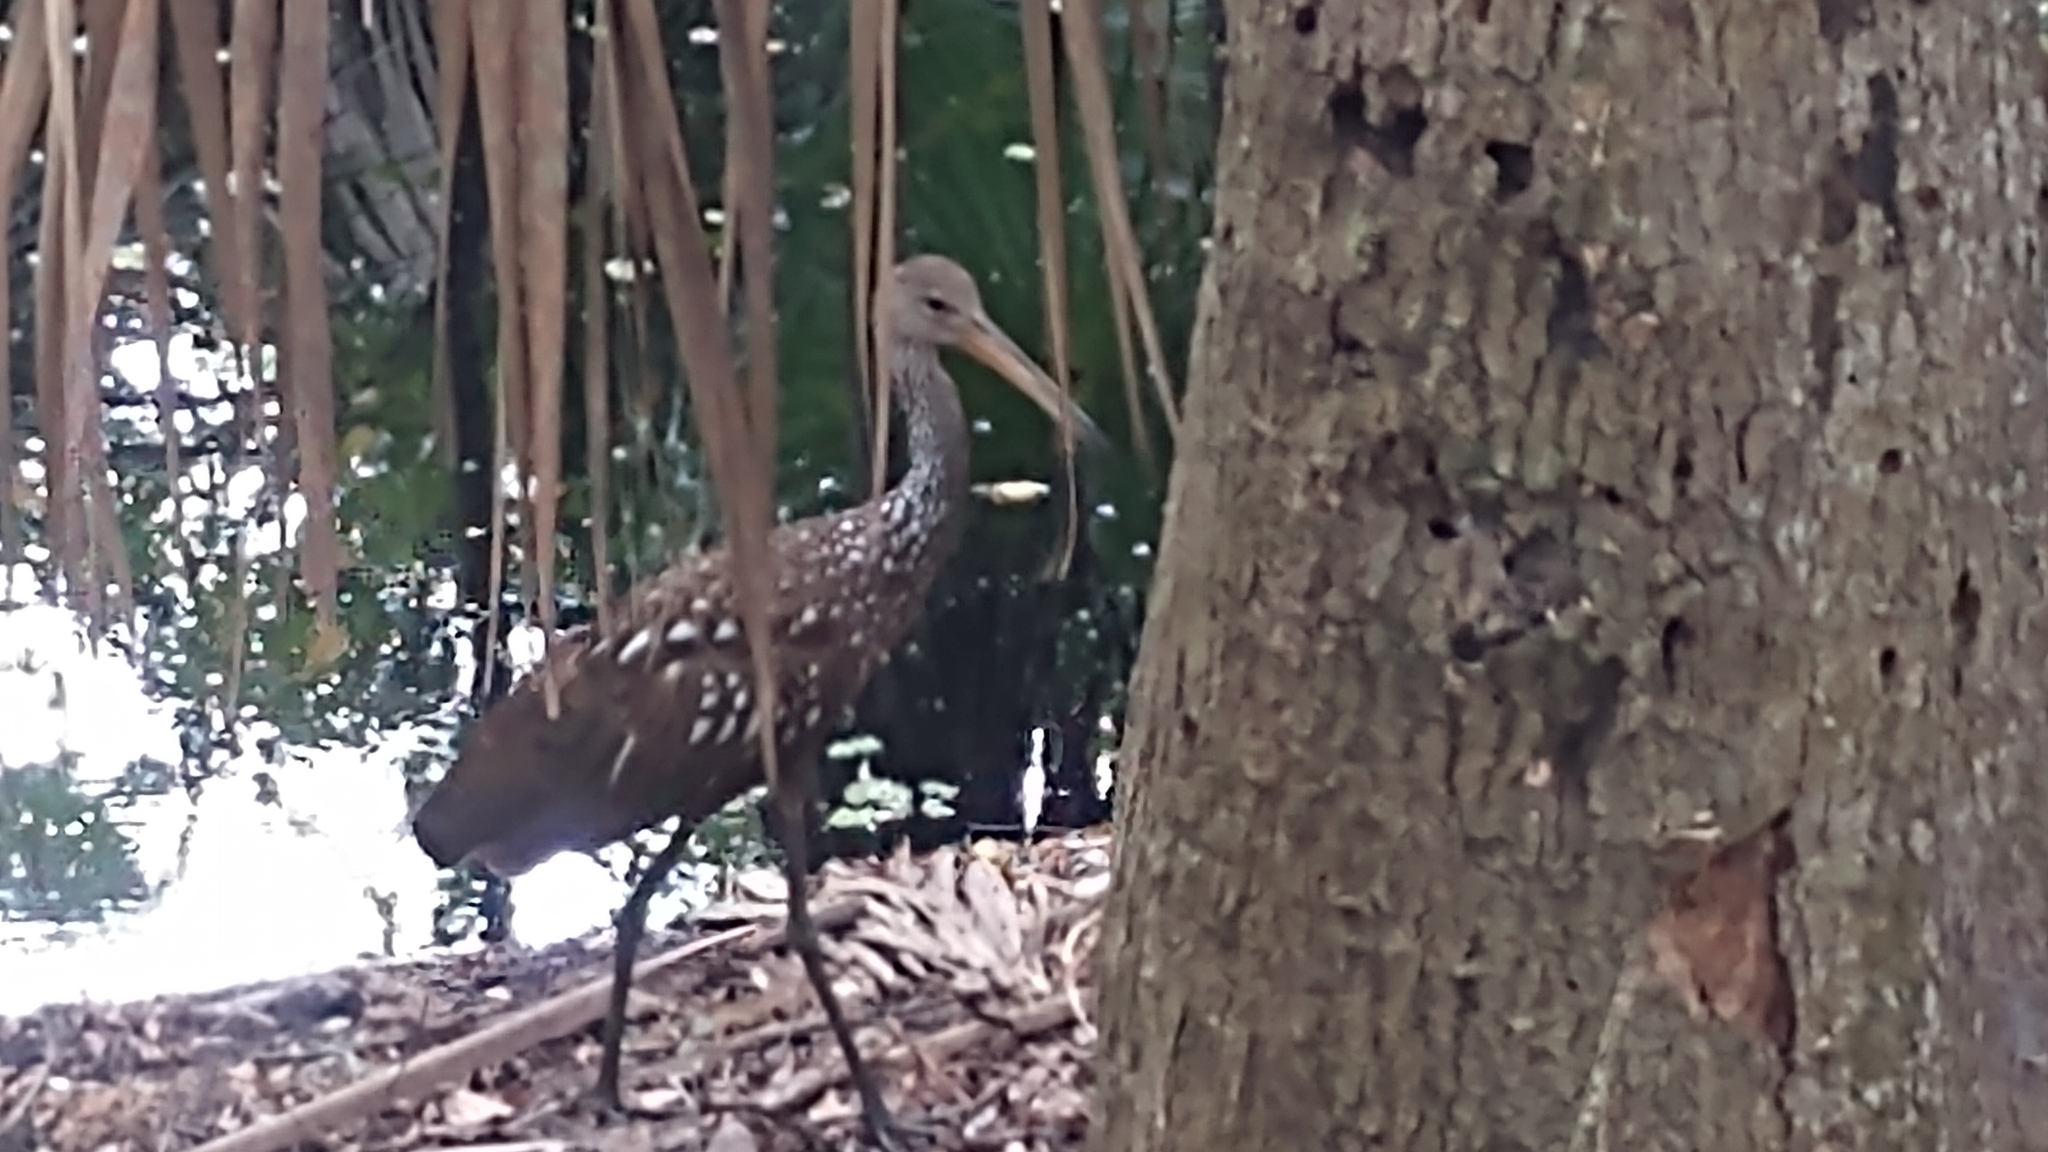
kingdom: Animalia
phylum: Chordata
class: Aves
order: Gruiformes
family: Aramidae
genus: Aramus
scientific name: Aramus guarauna
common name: Limpkin
